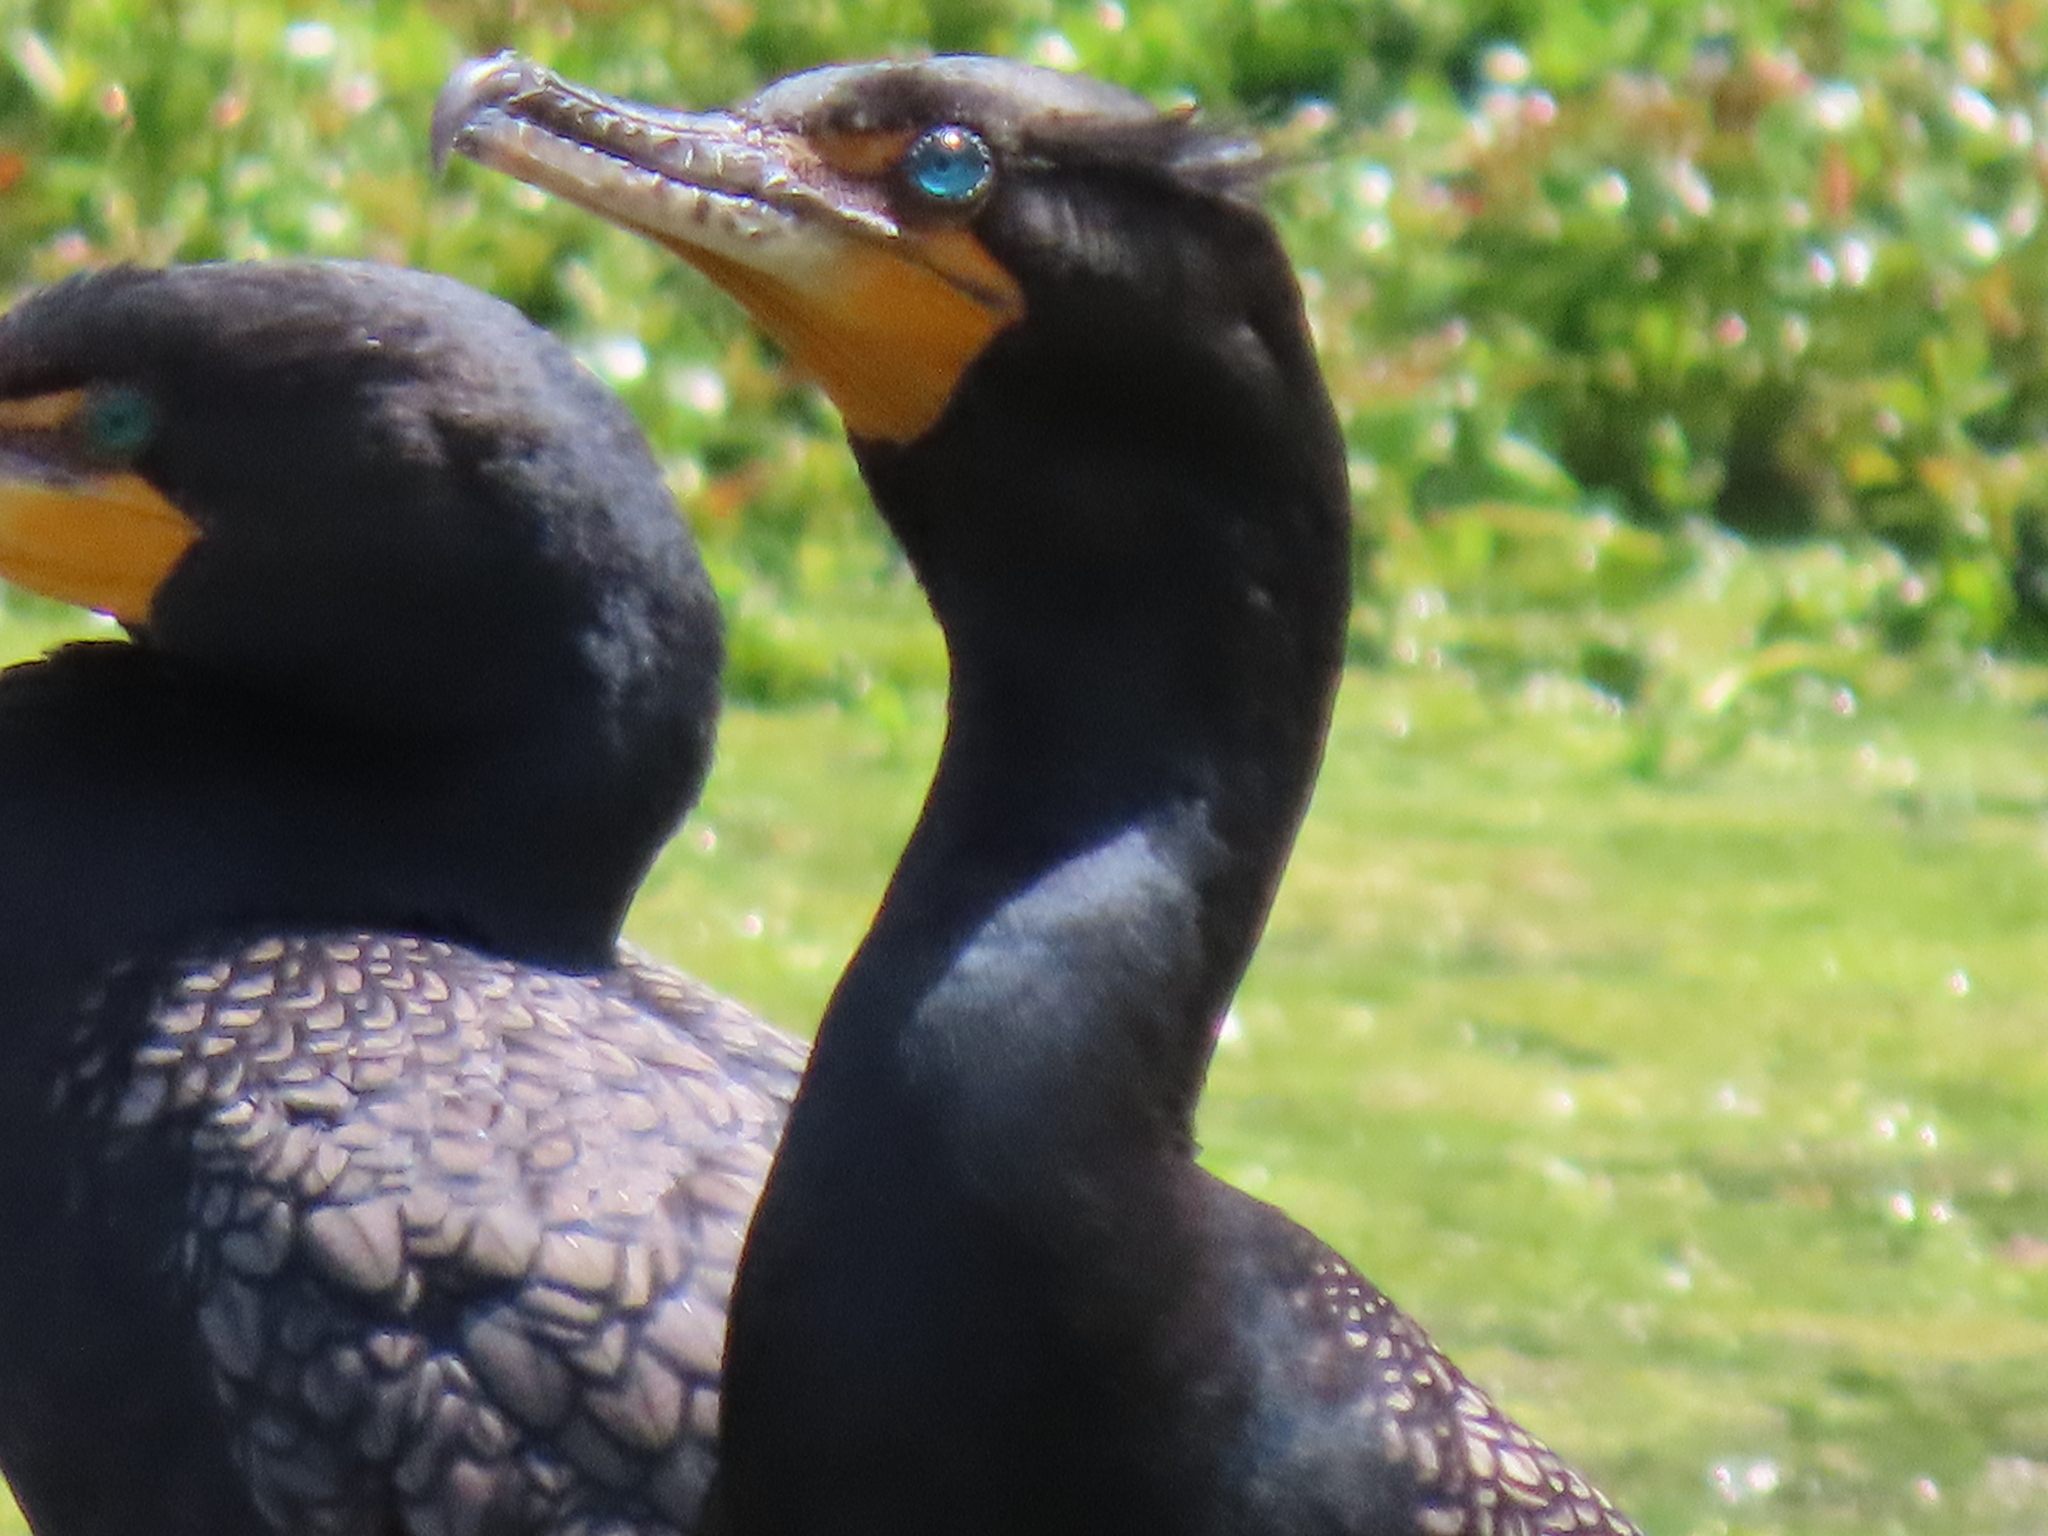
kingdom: Animalia
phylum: Chordata
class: Aves
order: Suliformes
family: Phalacrocoracidae
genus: Phalacrocorax
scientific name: Phalacrocorax auritus
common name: Double-crested cormorant
